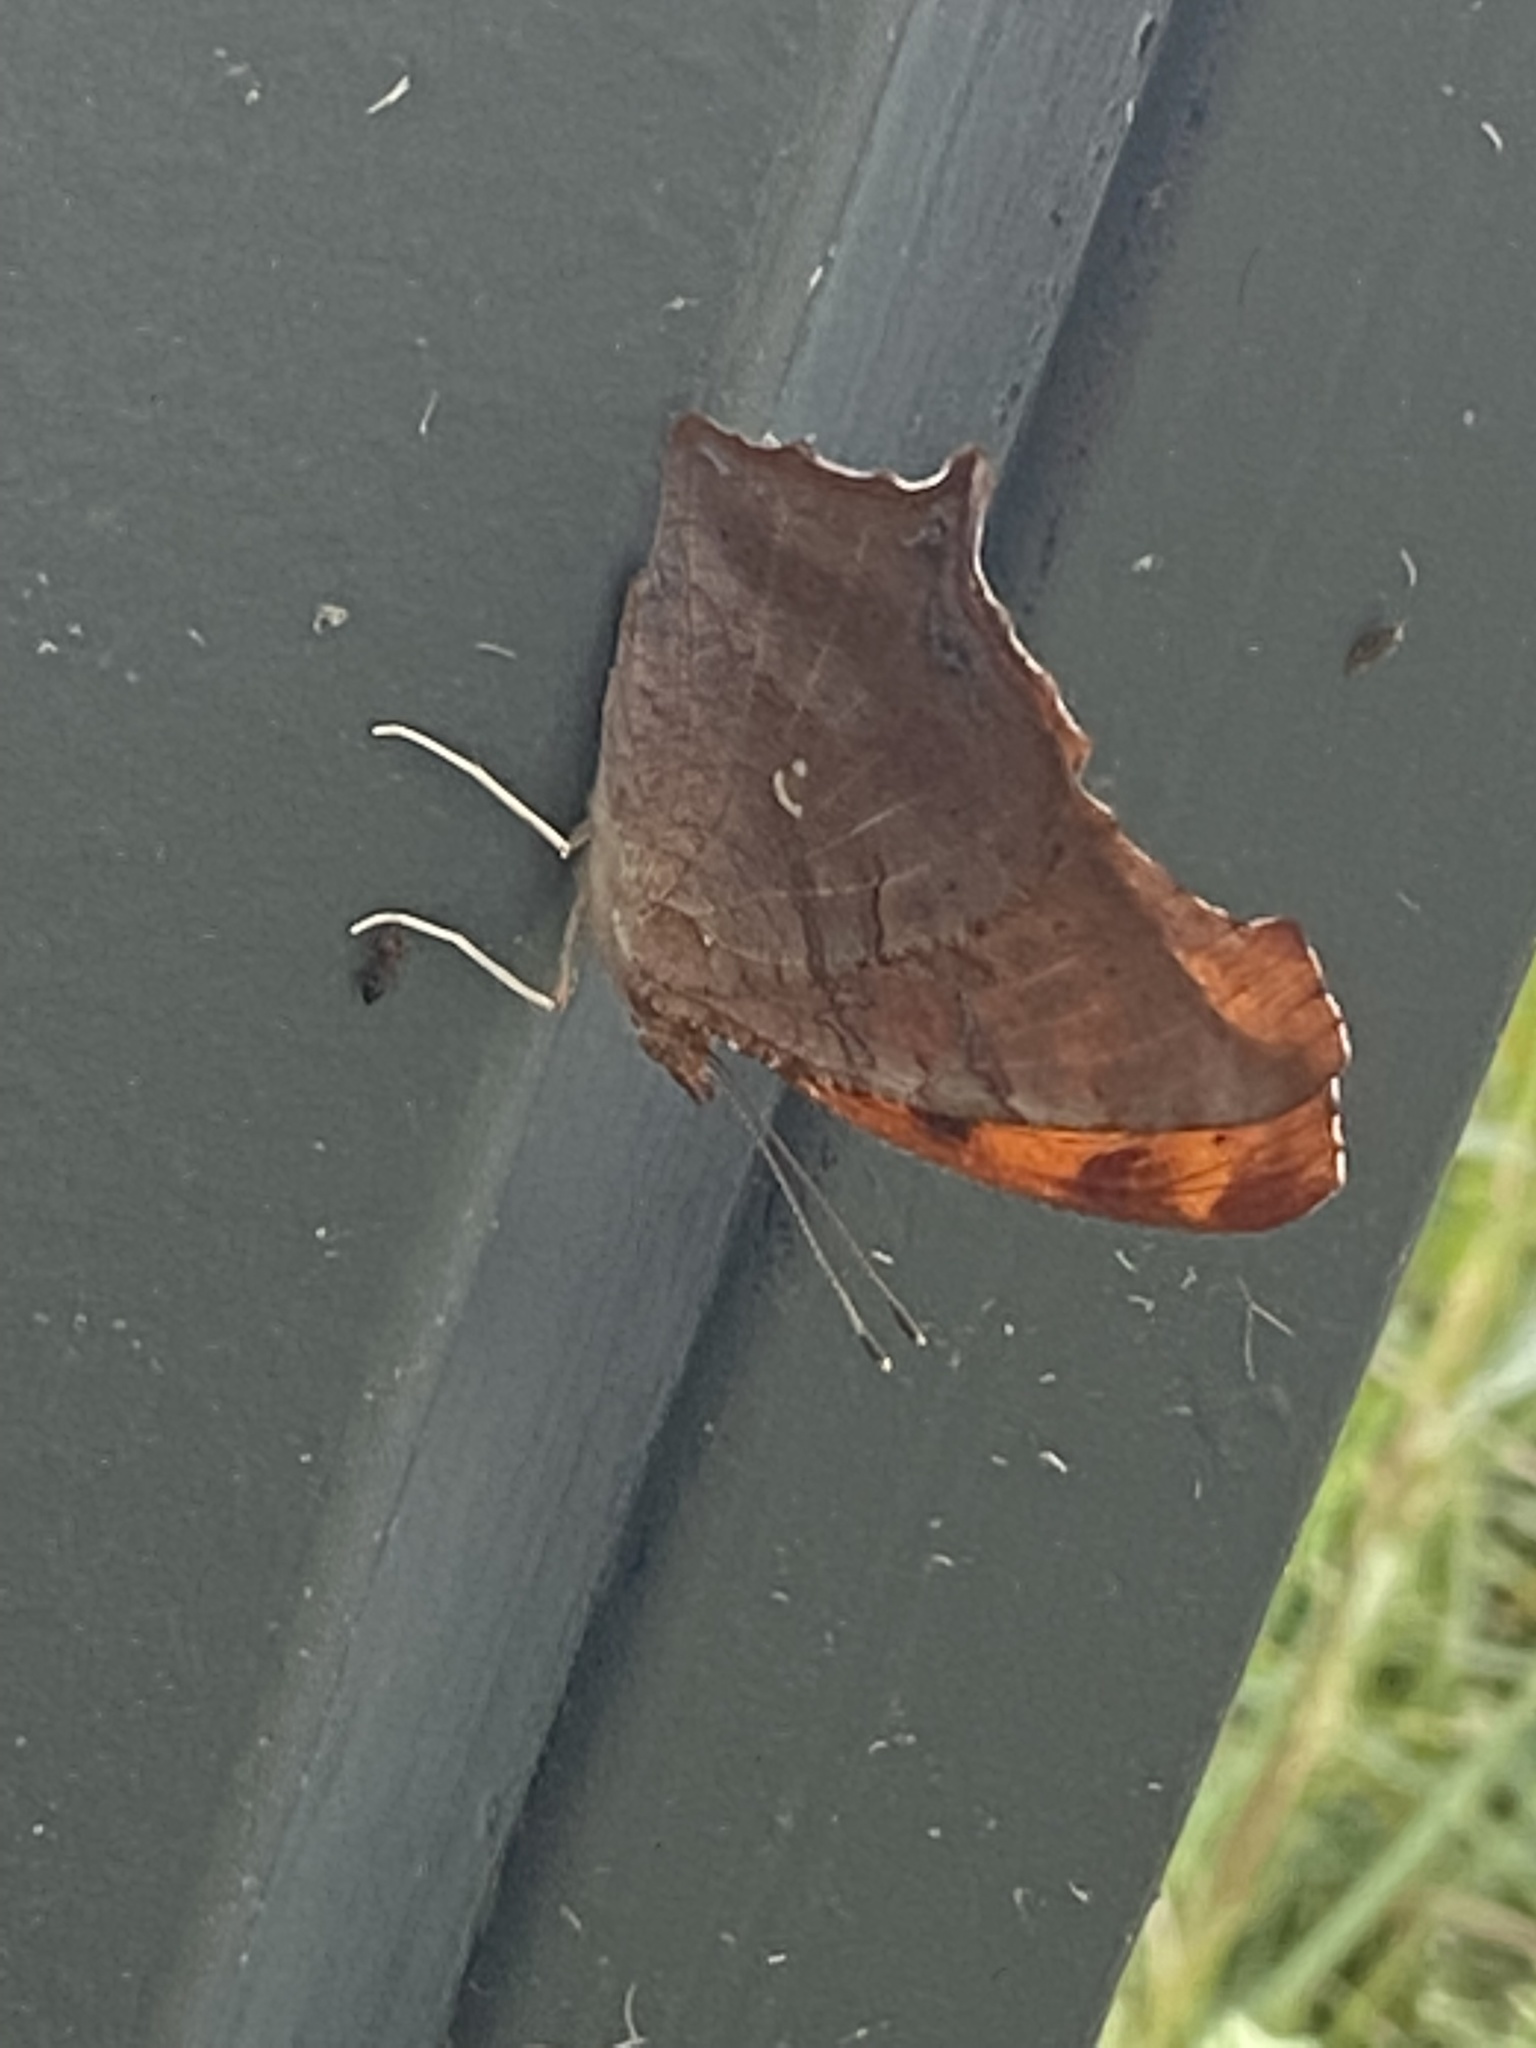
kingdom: Animalia
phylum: Arthropoda
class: Insecta
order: Lepidoptera
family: Nymphalidae
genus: Polygonia
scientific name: Polygonia interrogationis
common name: Question mark
